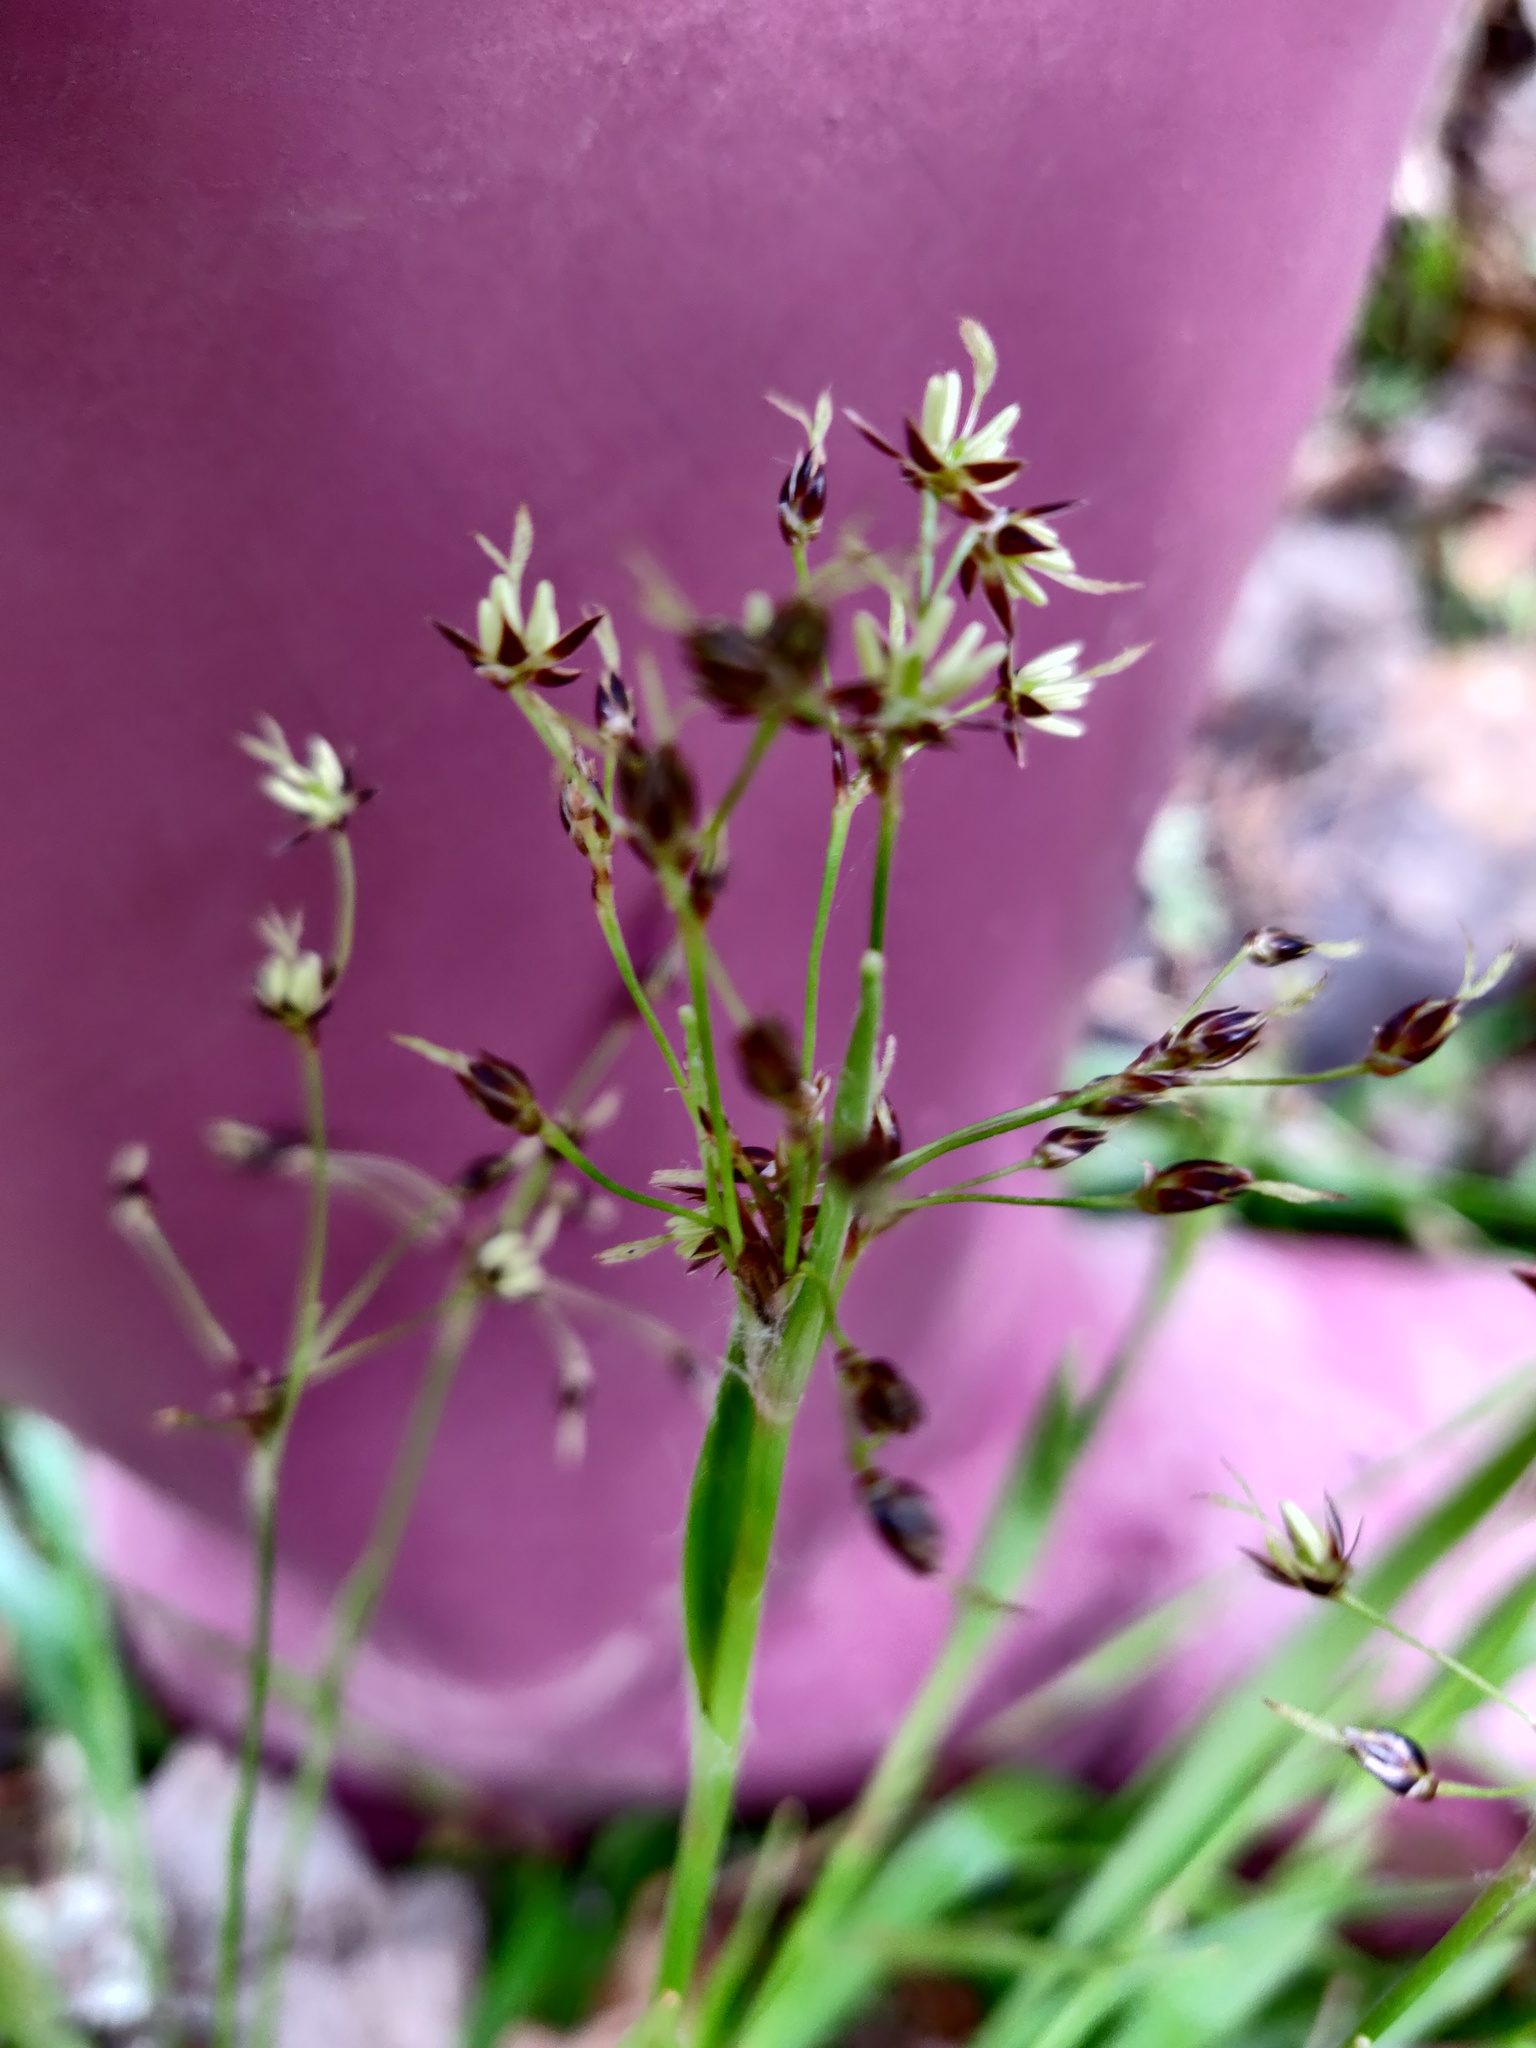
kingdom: Plantae
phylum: Tracheophyta
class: Liliopsida
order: Poales
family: Juncaceae
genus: Luzula
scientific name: Luzula pilosa
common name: Hairy wood-rush
